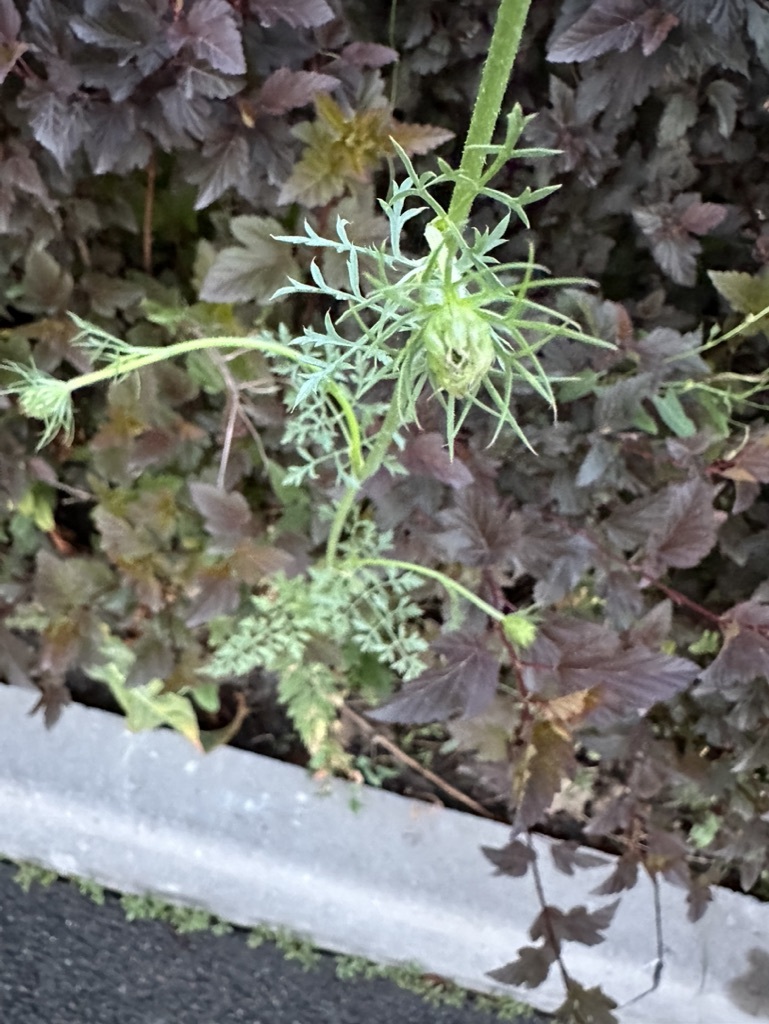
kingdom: Plantae
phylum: Tracheophyta
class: Magnoliopsida
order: Apiales
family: Apiaceae
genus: Daucus
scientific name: Daucus carota
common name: Wild carrot
